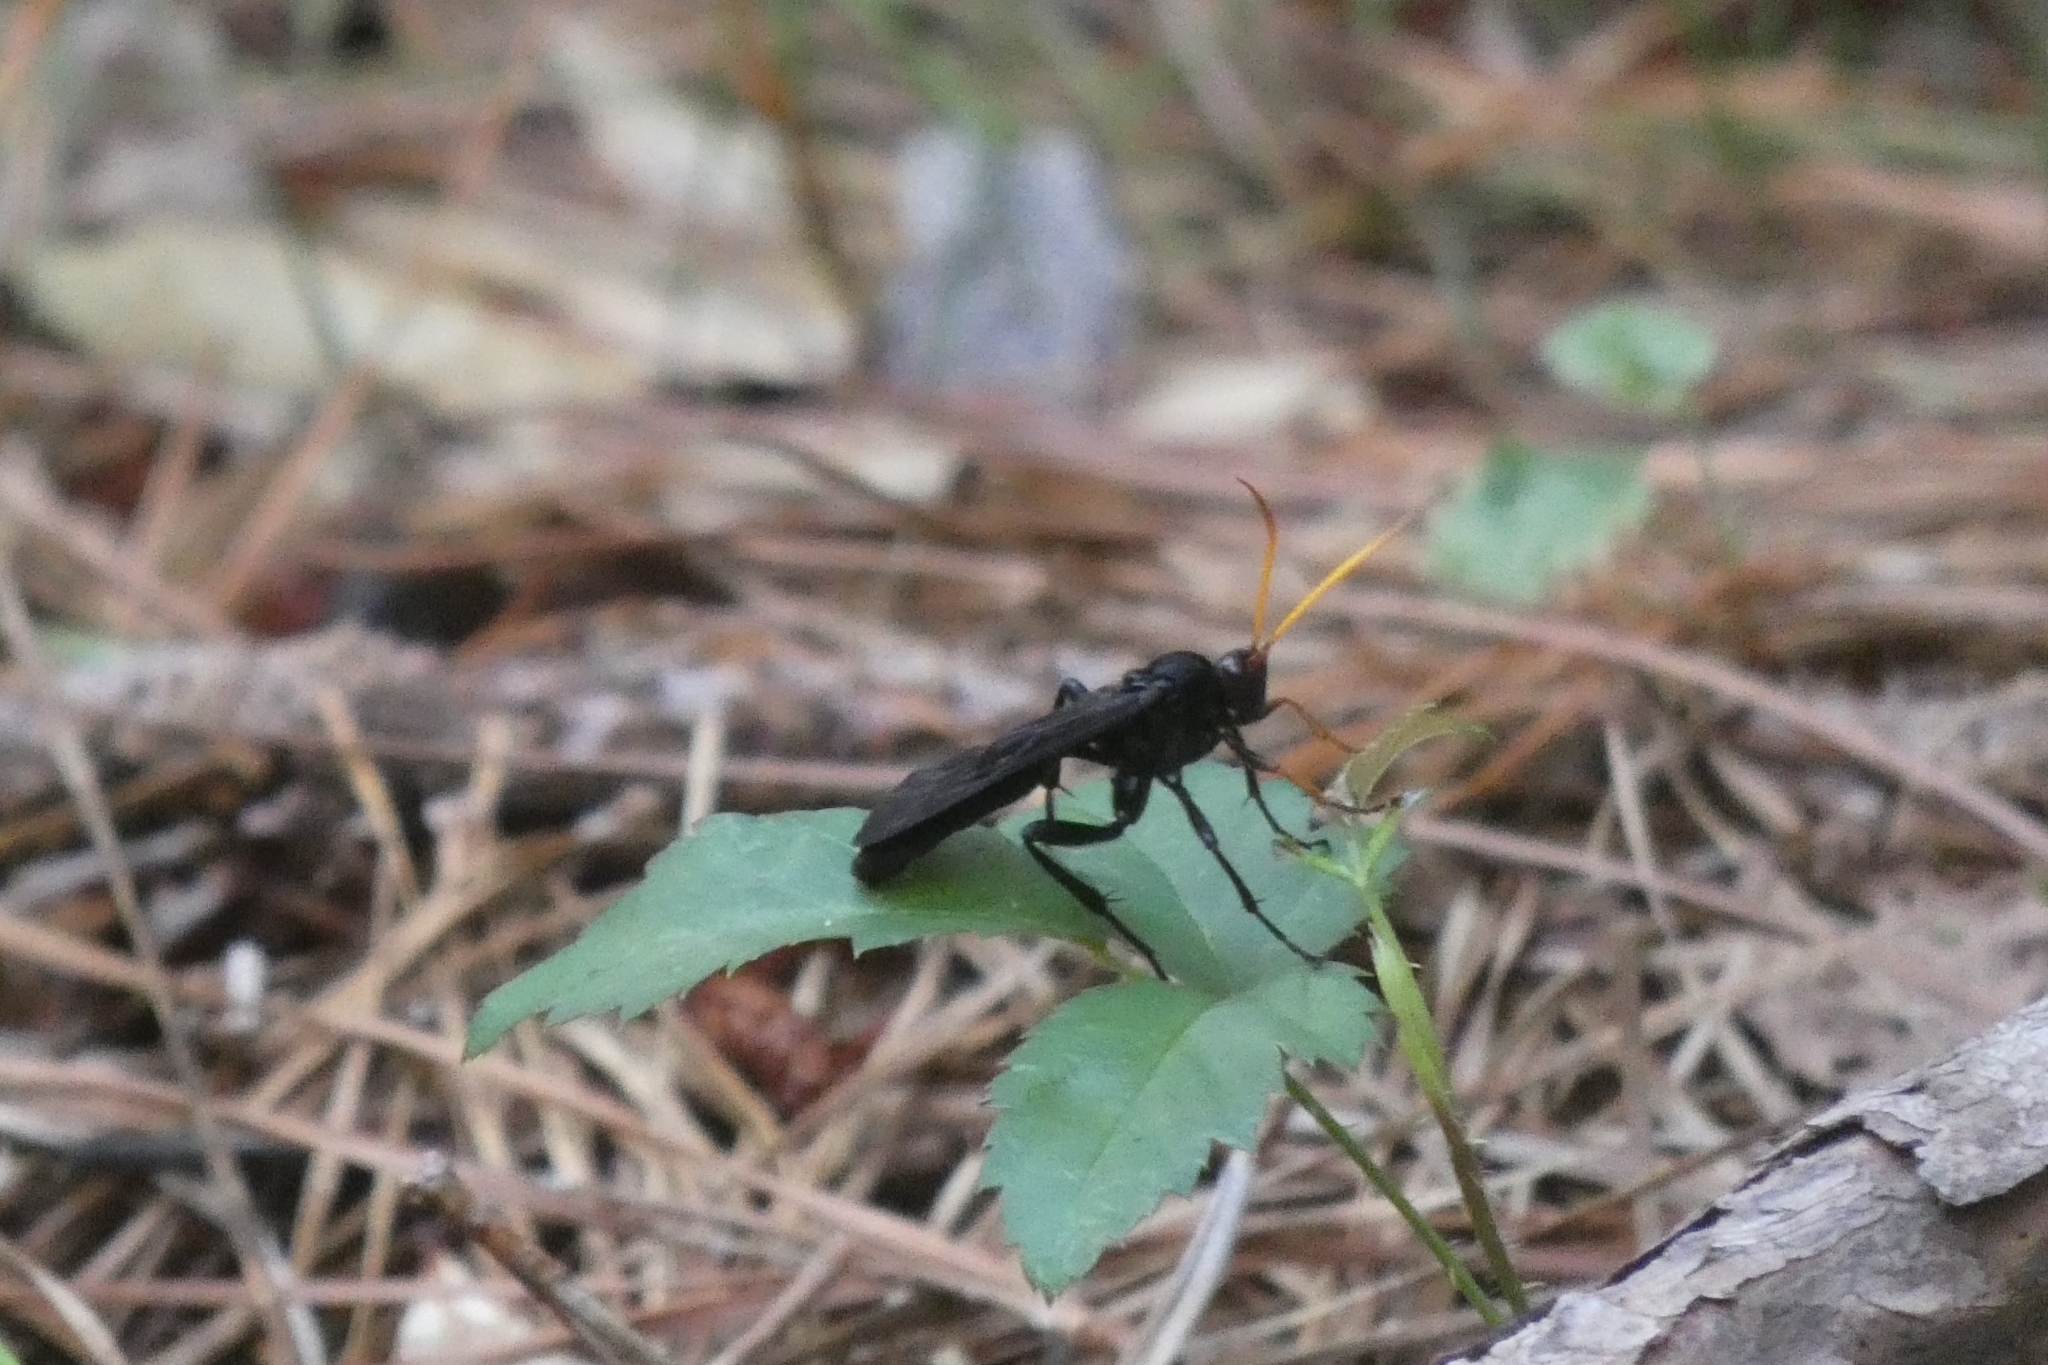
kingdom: Animalia
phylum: Arthropoda
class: Insecta
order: Hymenoptera
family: Ichneumonidae
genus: Gnamptopelta
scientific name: Gnamptopelta obsidianator
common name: Bent-shielded besieger wasp
